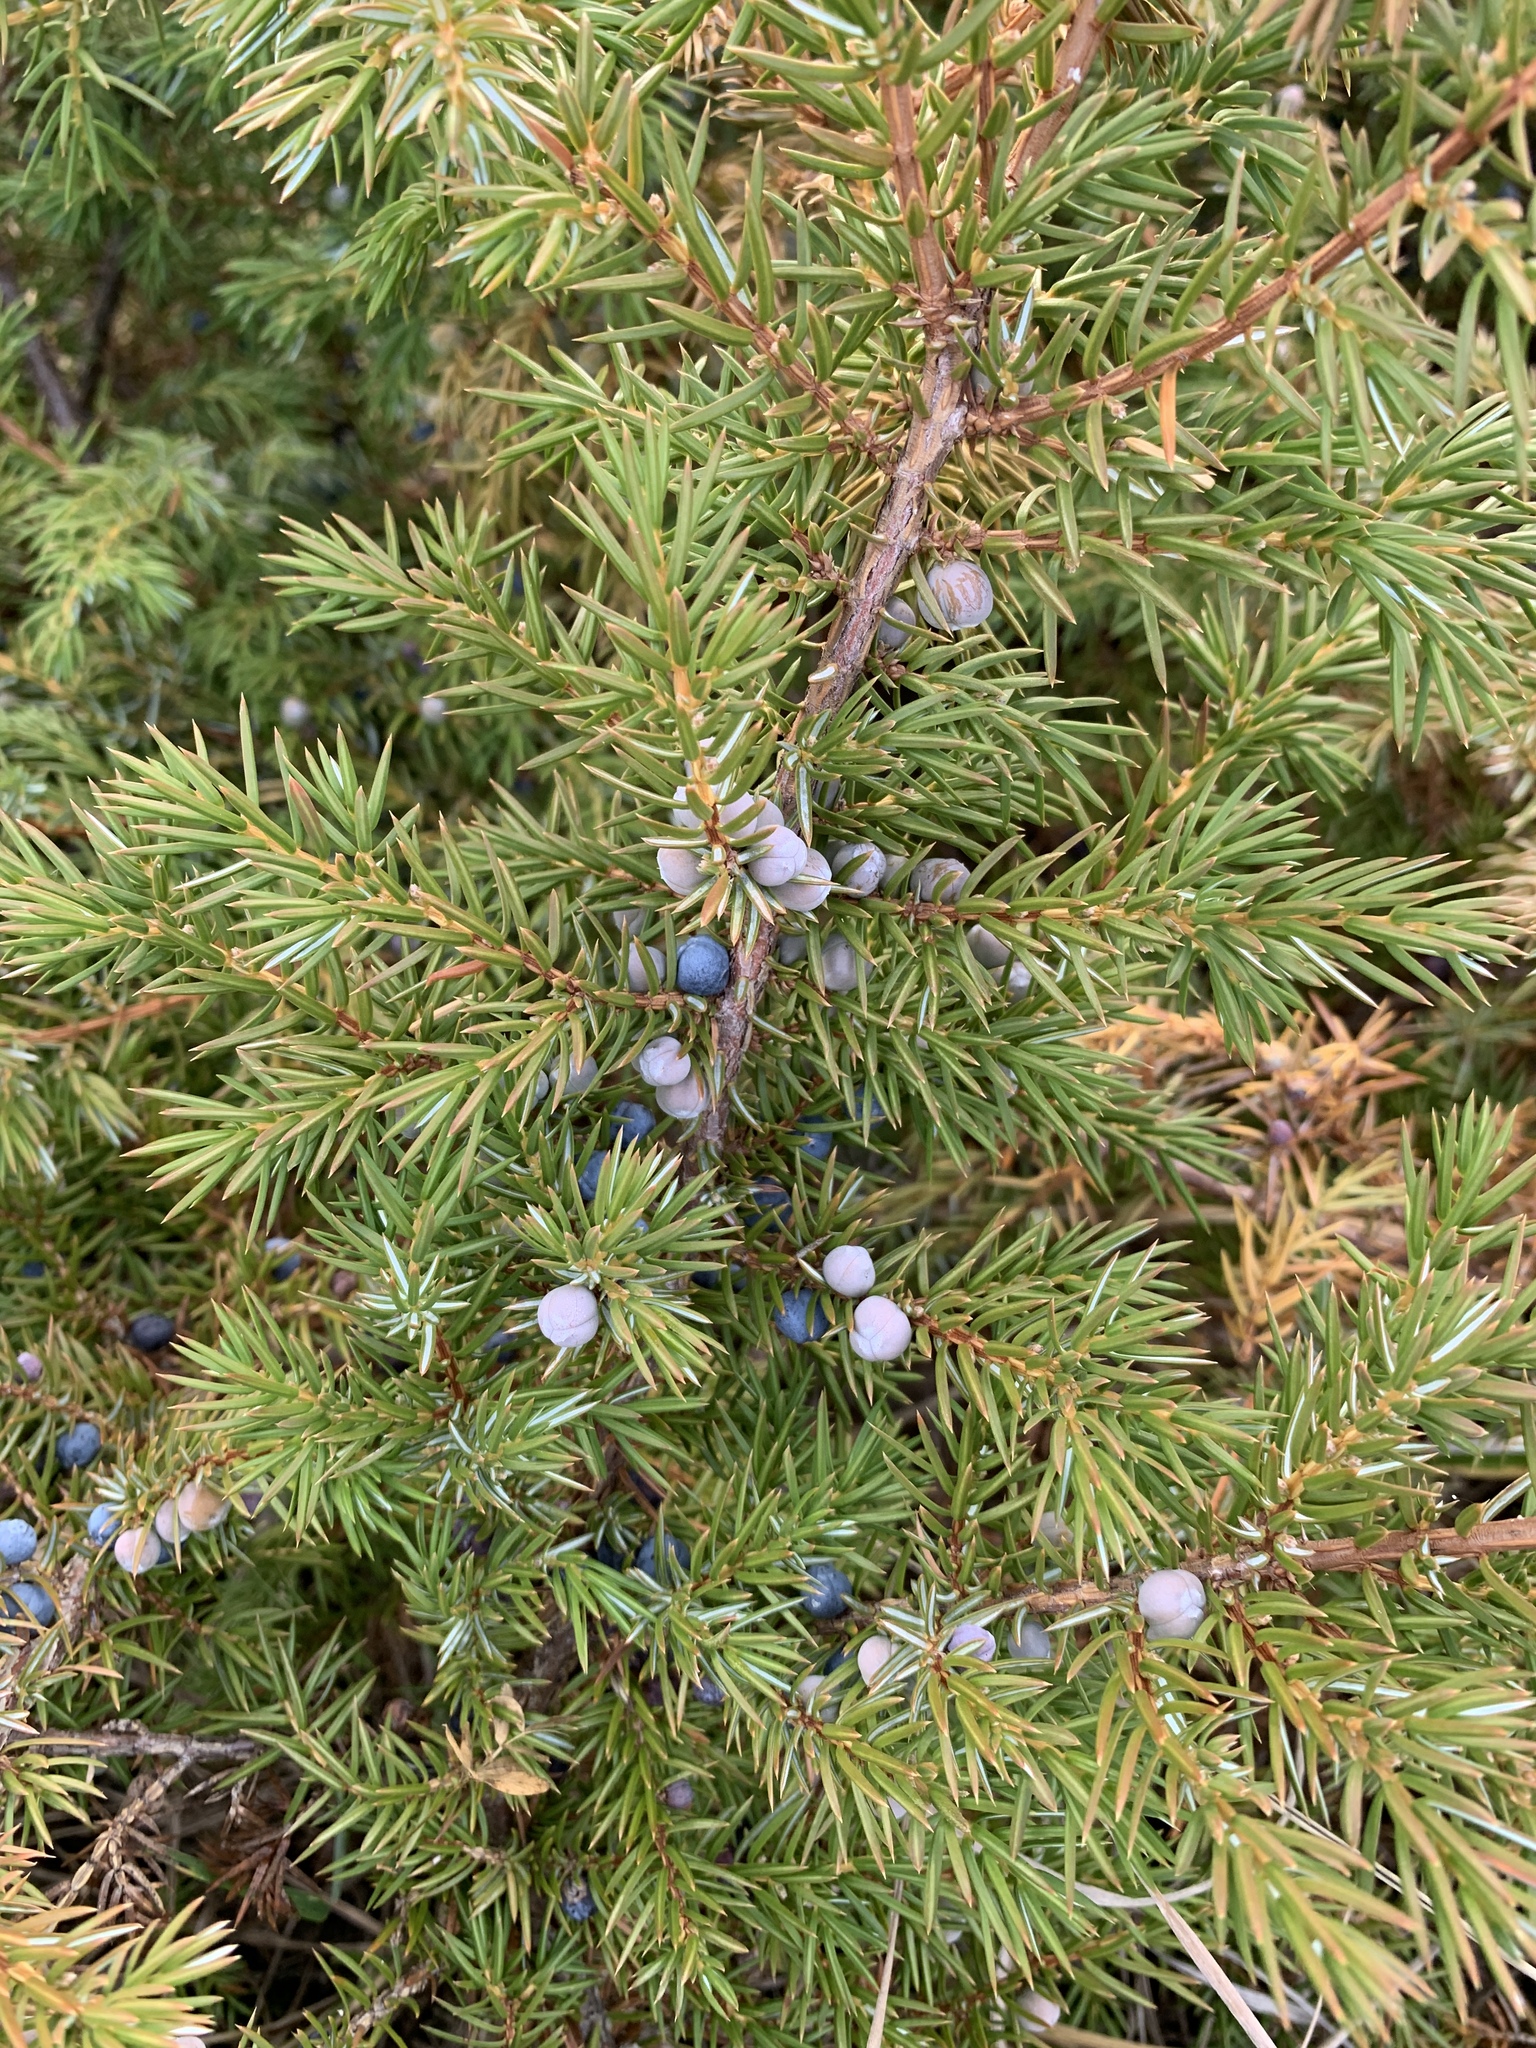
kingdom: Plantae
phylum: Tracheophyta
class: Pinopsida
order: Pinales
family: Cupressaceae
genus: Juniperus
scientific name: Juniperus communis
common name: Common juniper
